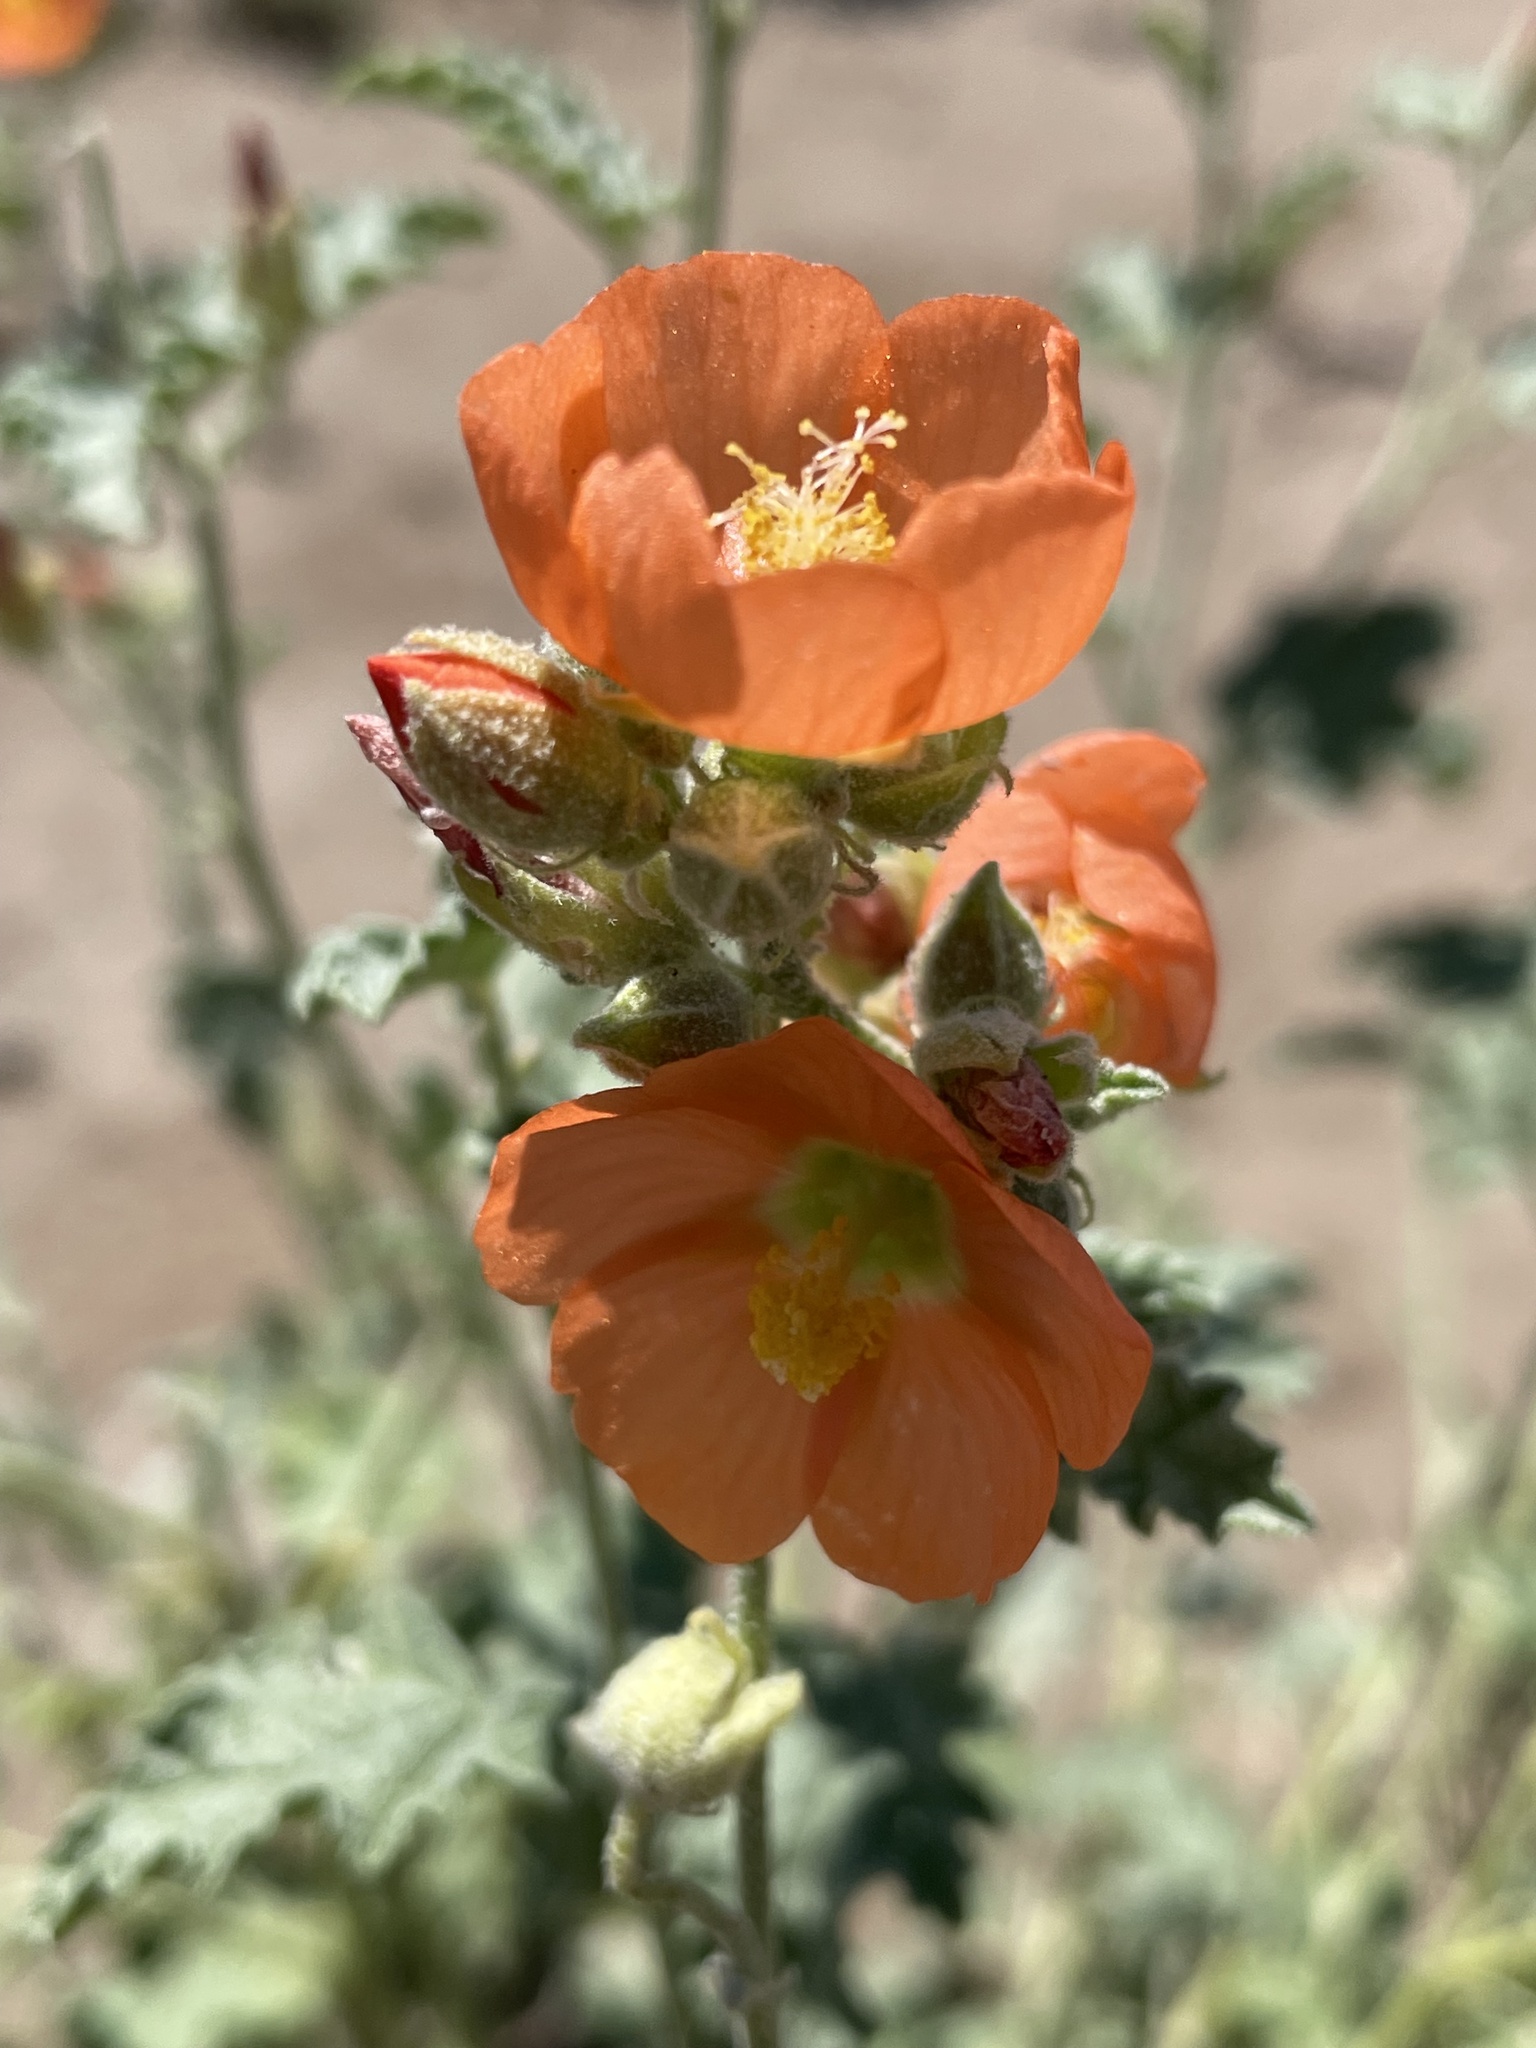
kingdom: Plantae
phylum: Tracheophyta
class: Magnoliopsida
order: Malvales
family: Malvaceae
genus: Sphaeralcea
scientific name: Sphaeralcea ambigua
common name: Apricot globe-mallow
